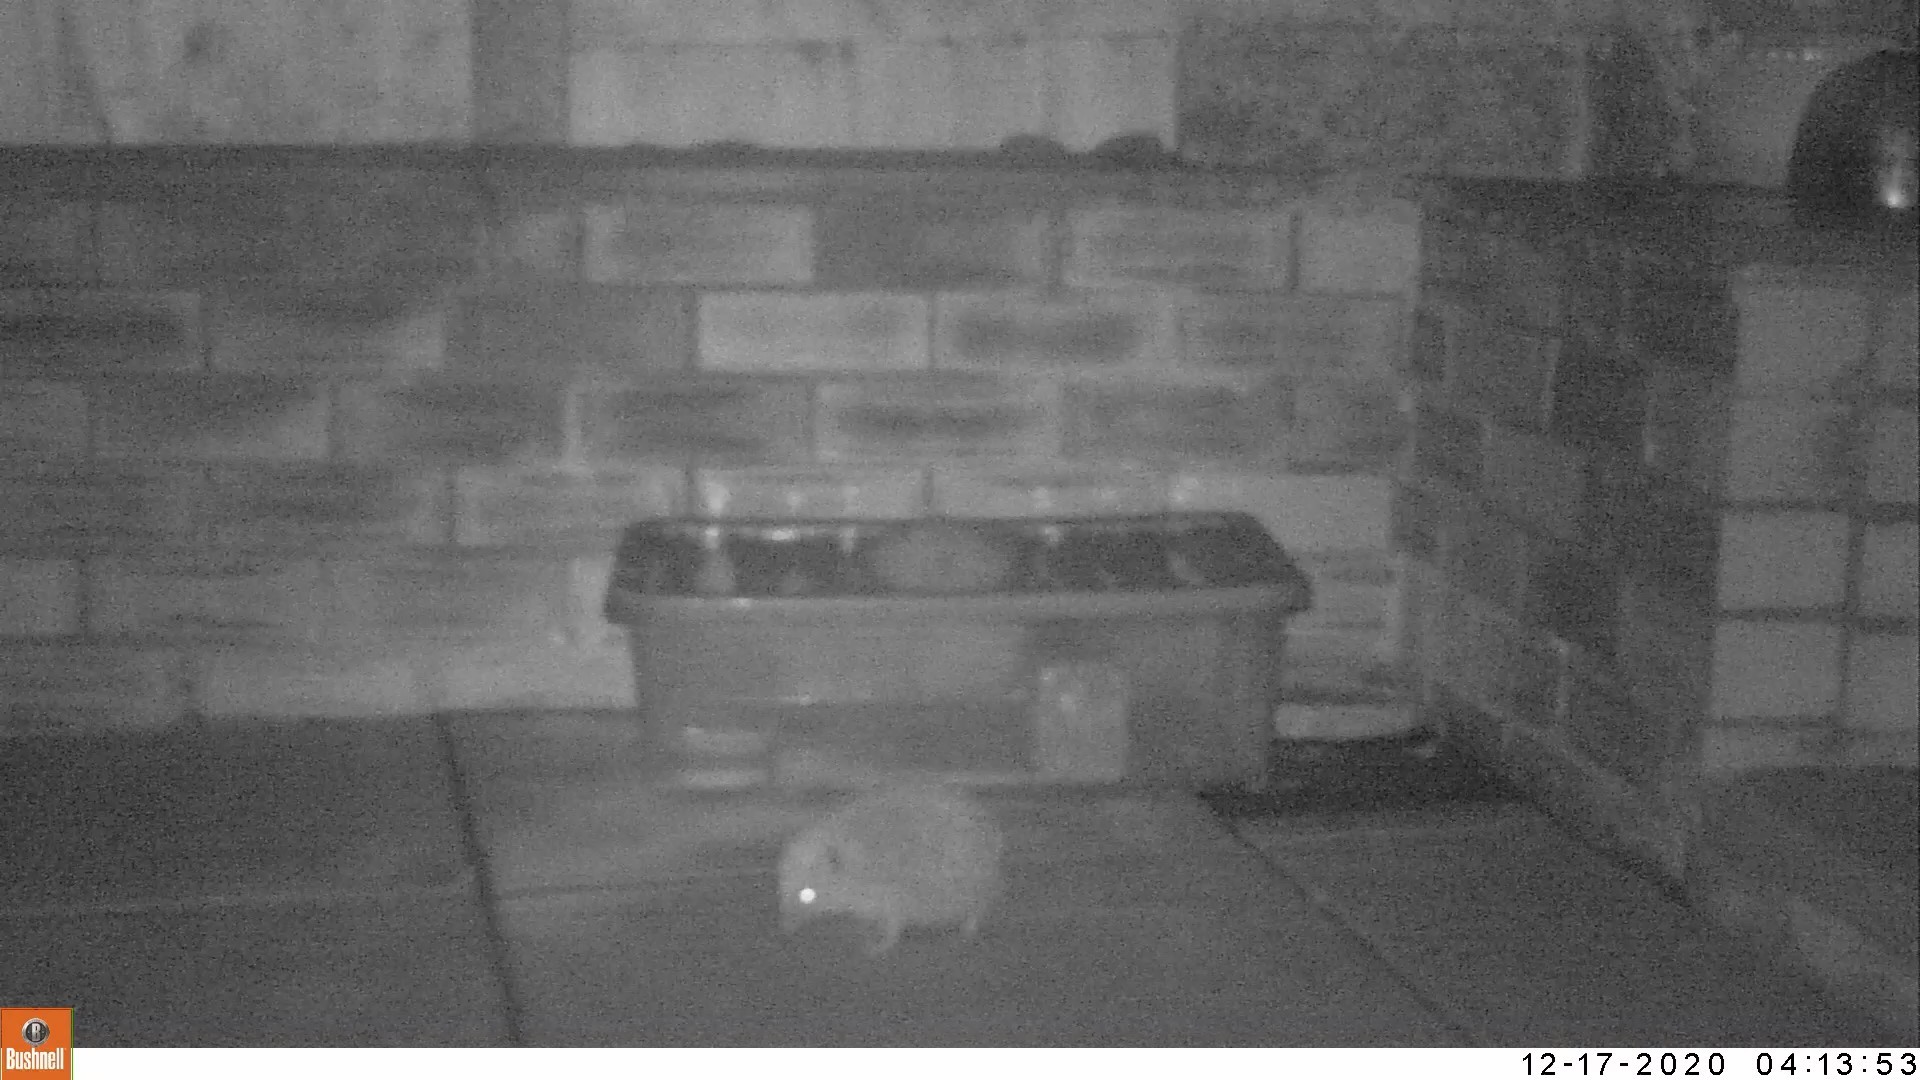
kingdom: Animalia
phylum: Chordata
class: Mammalia
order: Erinaceomorpha
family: Erinaceidae
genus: Erinaceus
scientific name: Erinaceus europaeus
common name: West european hedgehog
